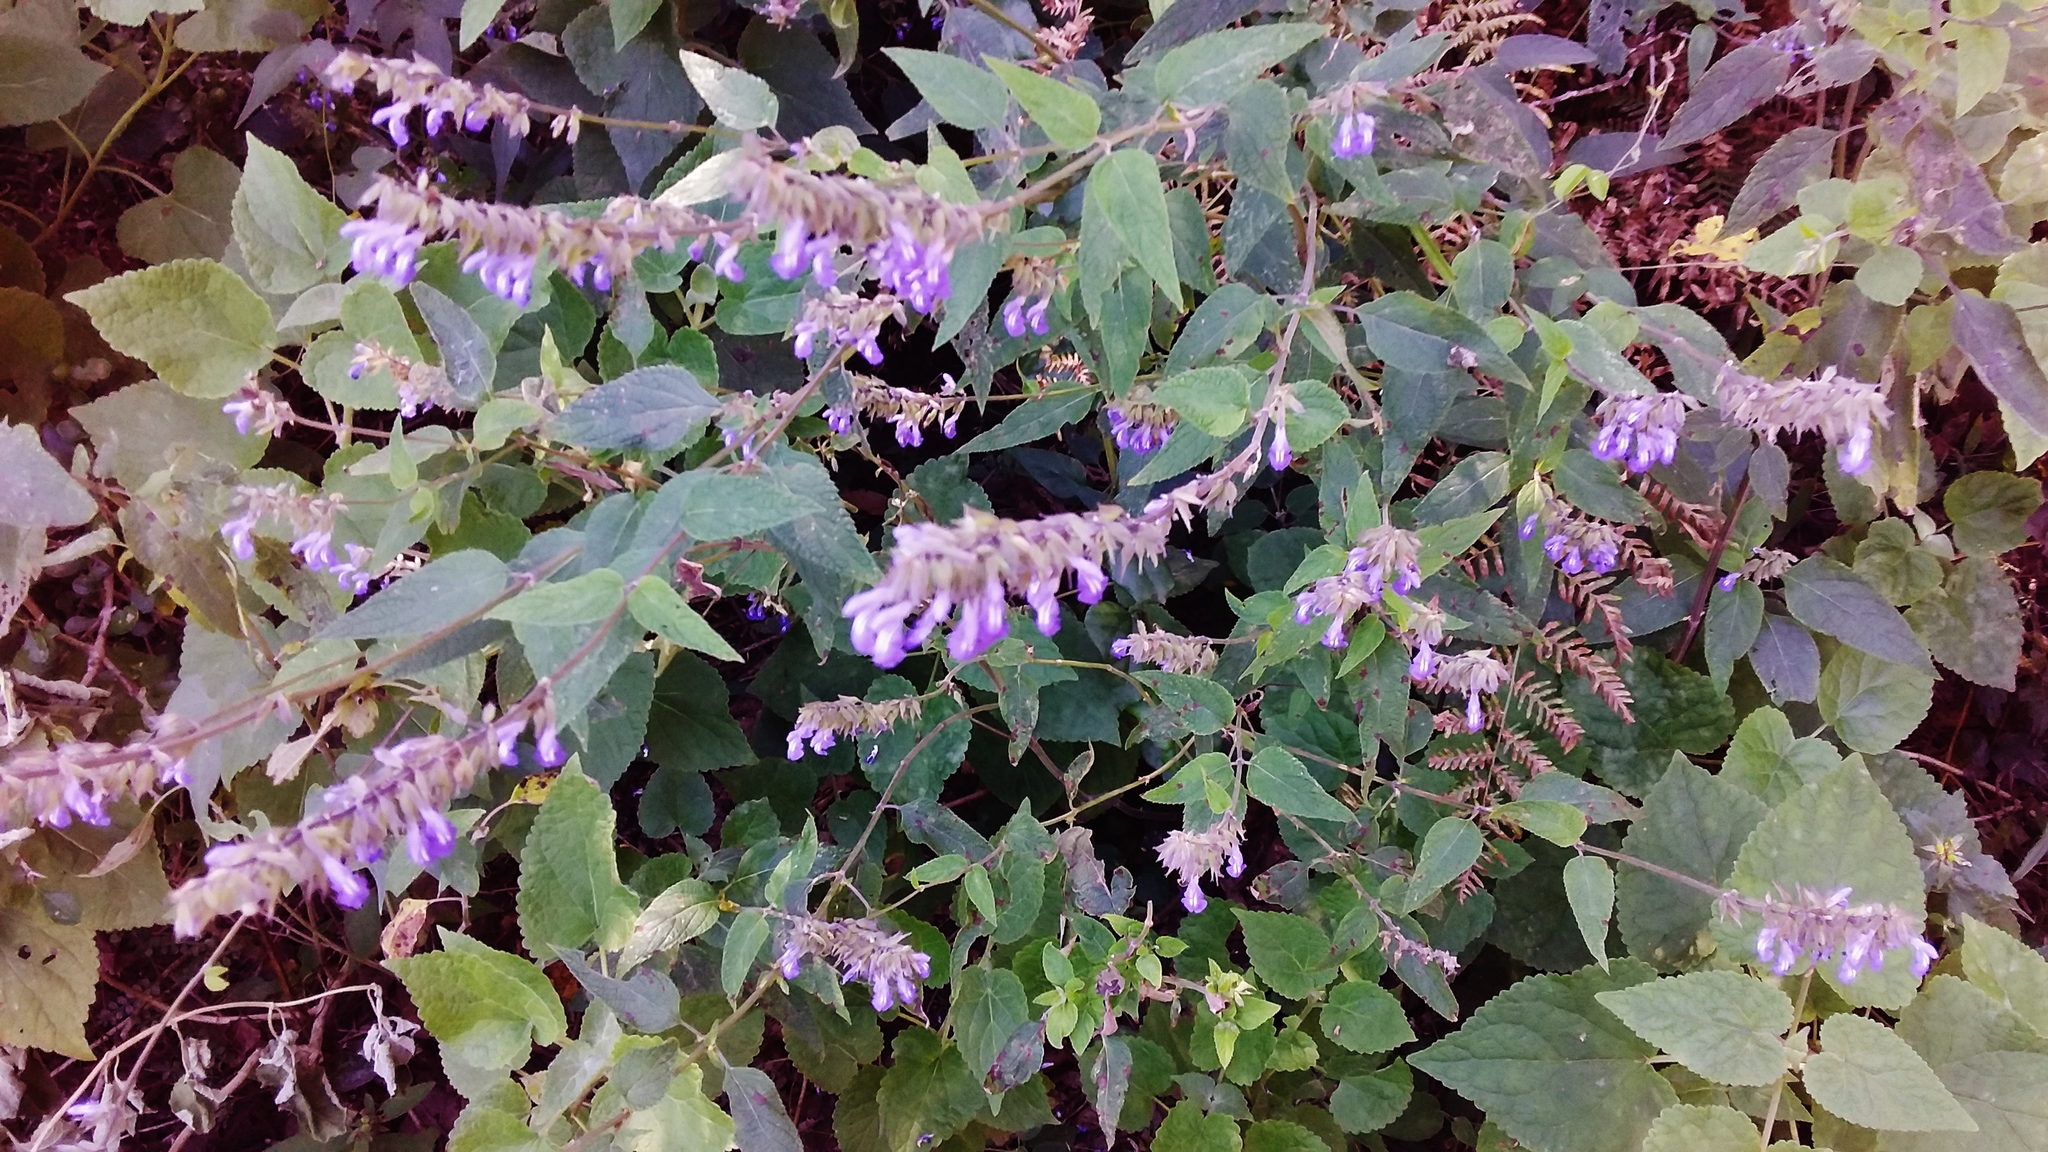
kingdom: Plantae
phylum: Tracheophyta
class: Magnoliopsida
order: Lamiales
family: Lamiaceae
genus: Salvia
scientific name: Salvia polystachia
